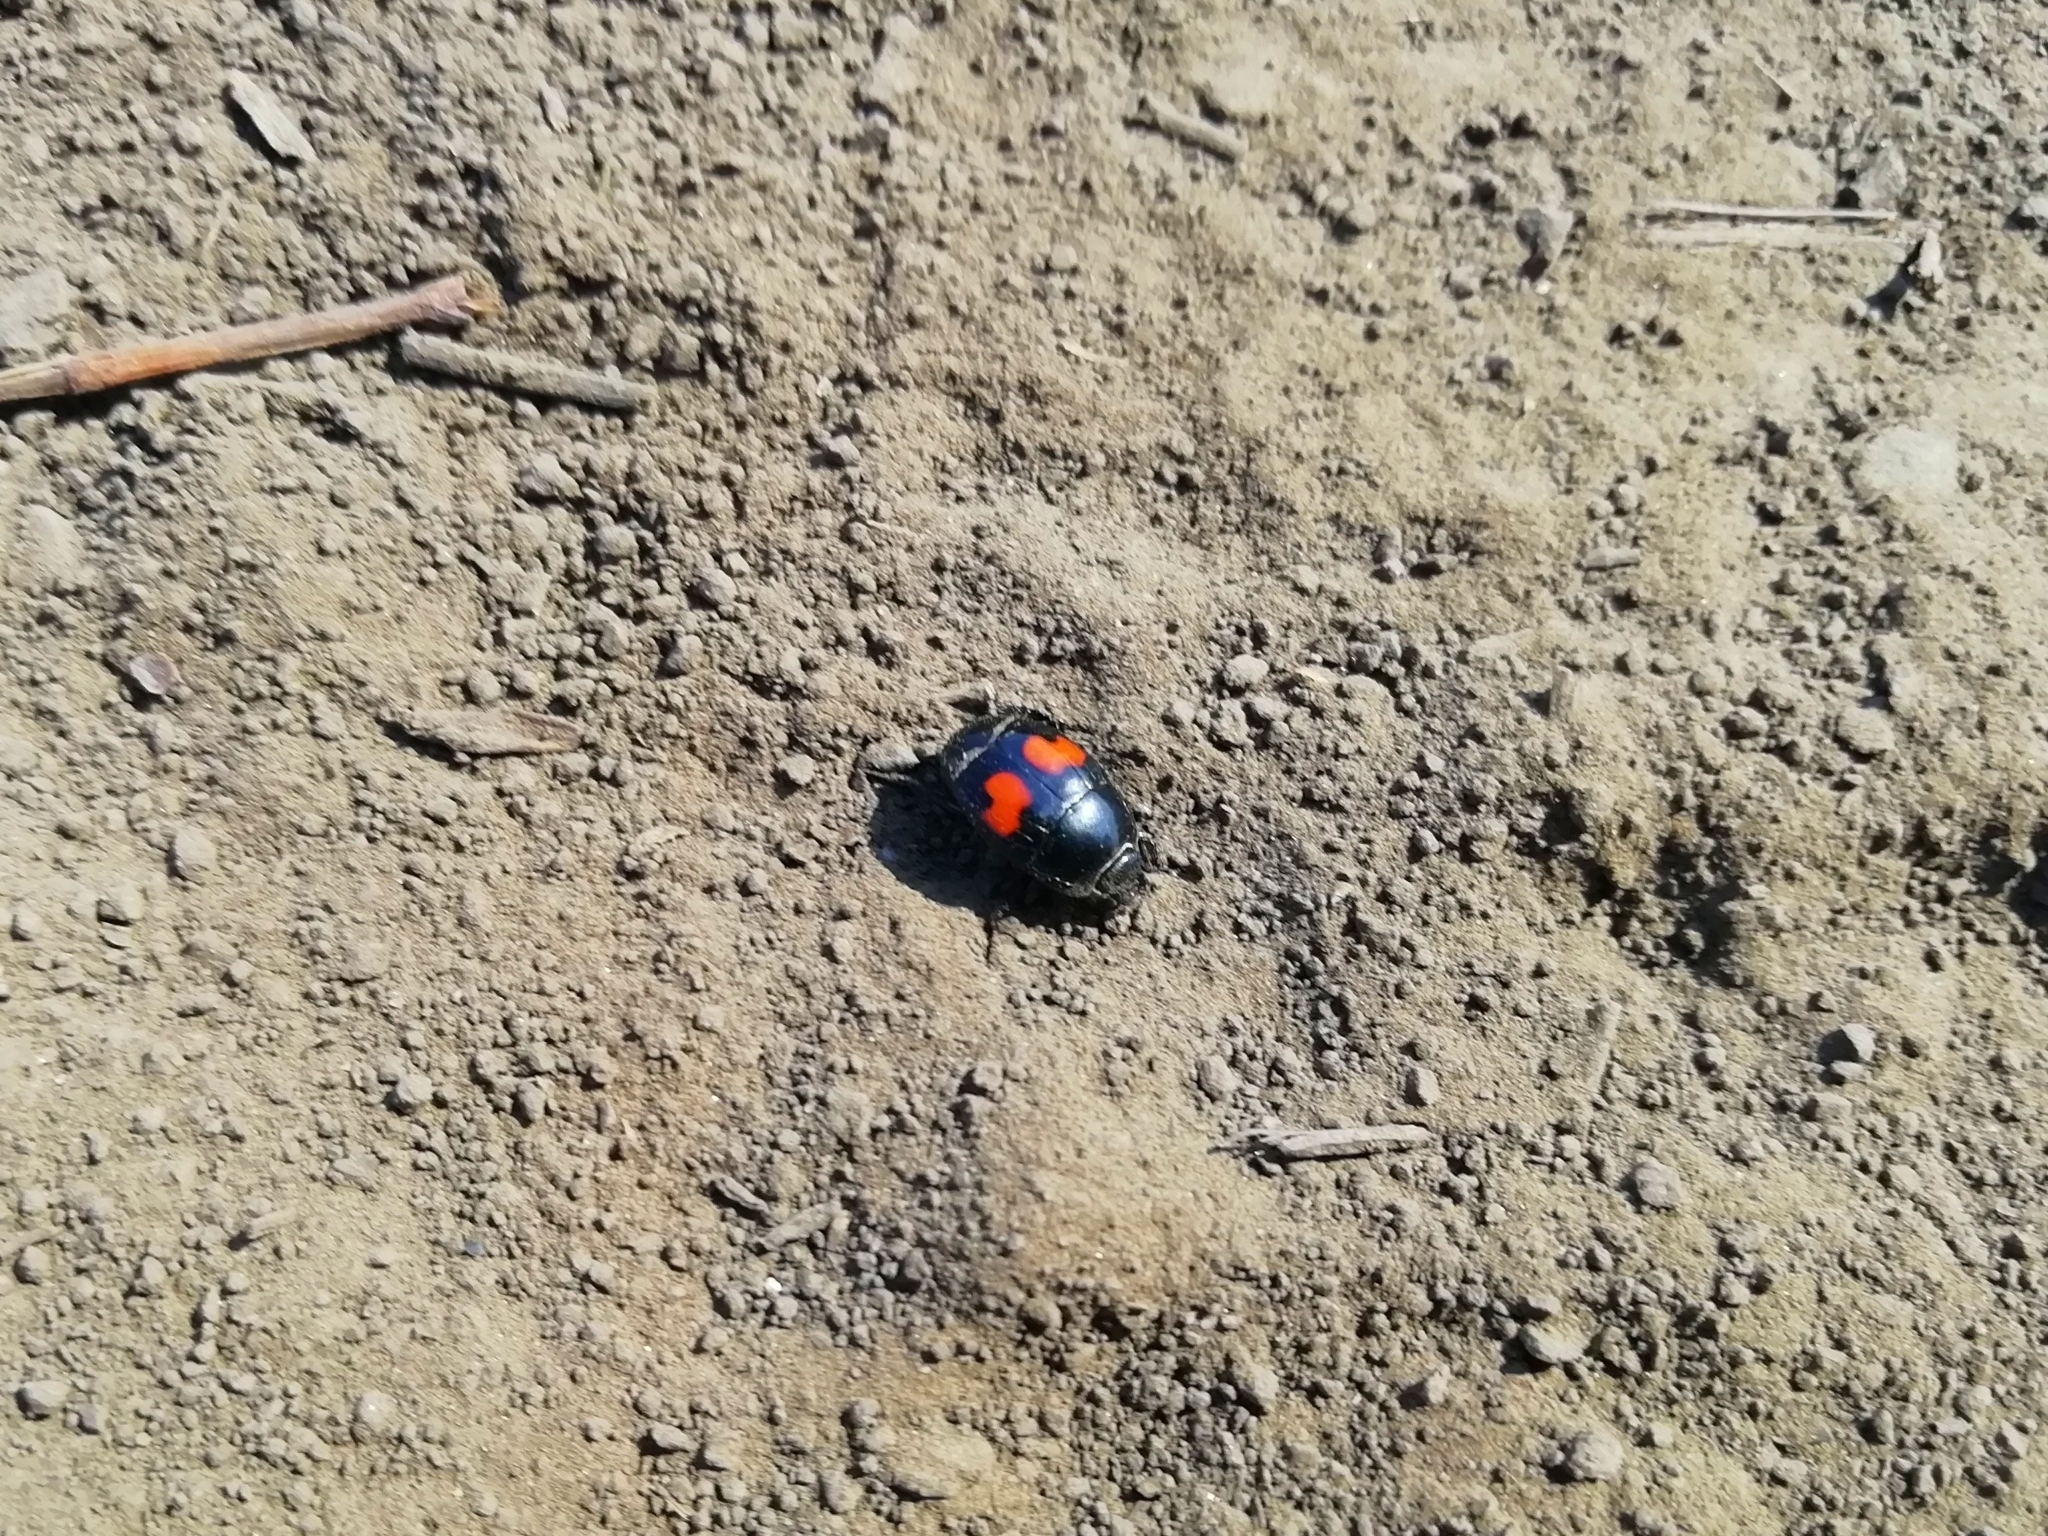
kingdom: Animalia
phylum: Arthropoda
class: Insecta
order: Coleoptera
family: Histeridae
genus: Margarinotus
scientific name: Margarinotus bipustulatus
